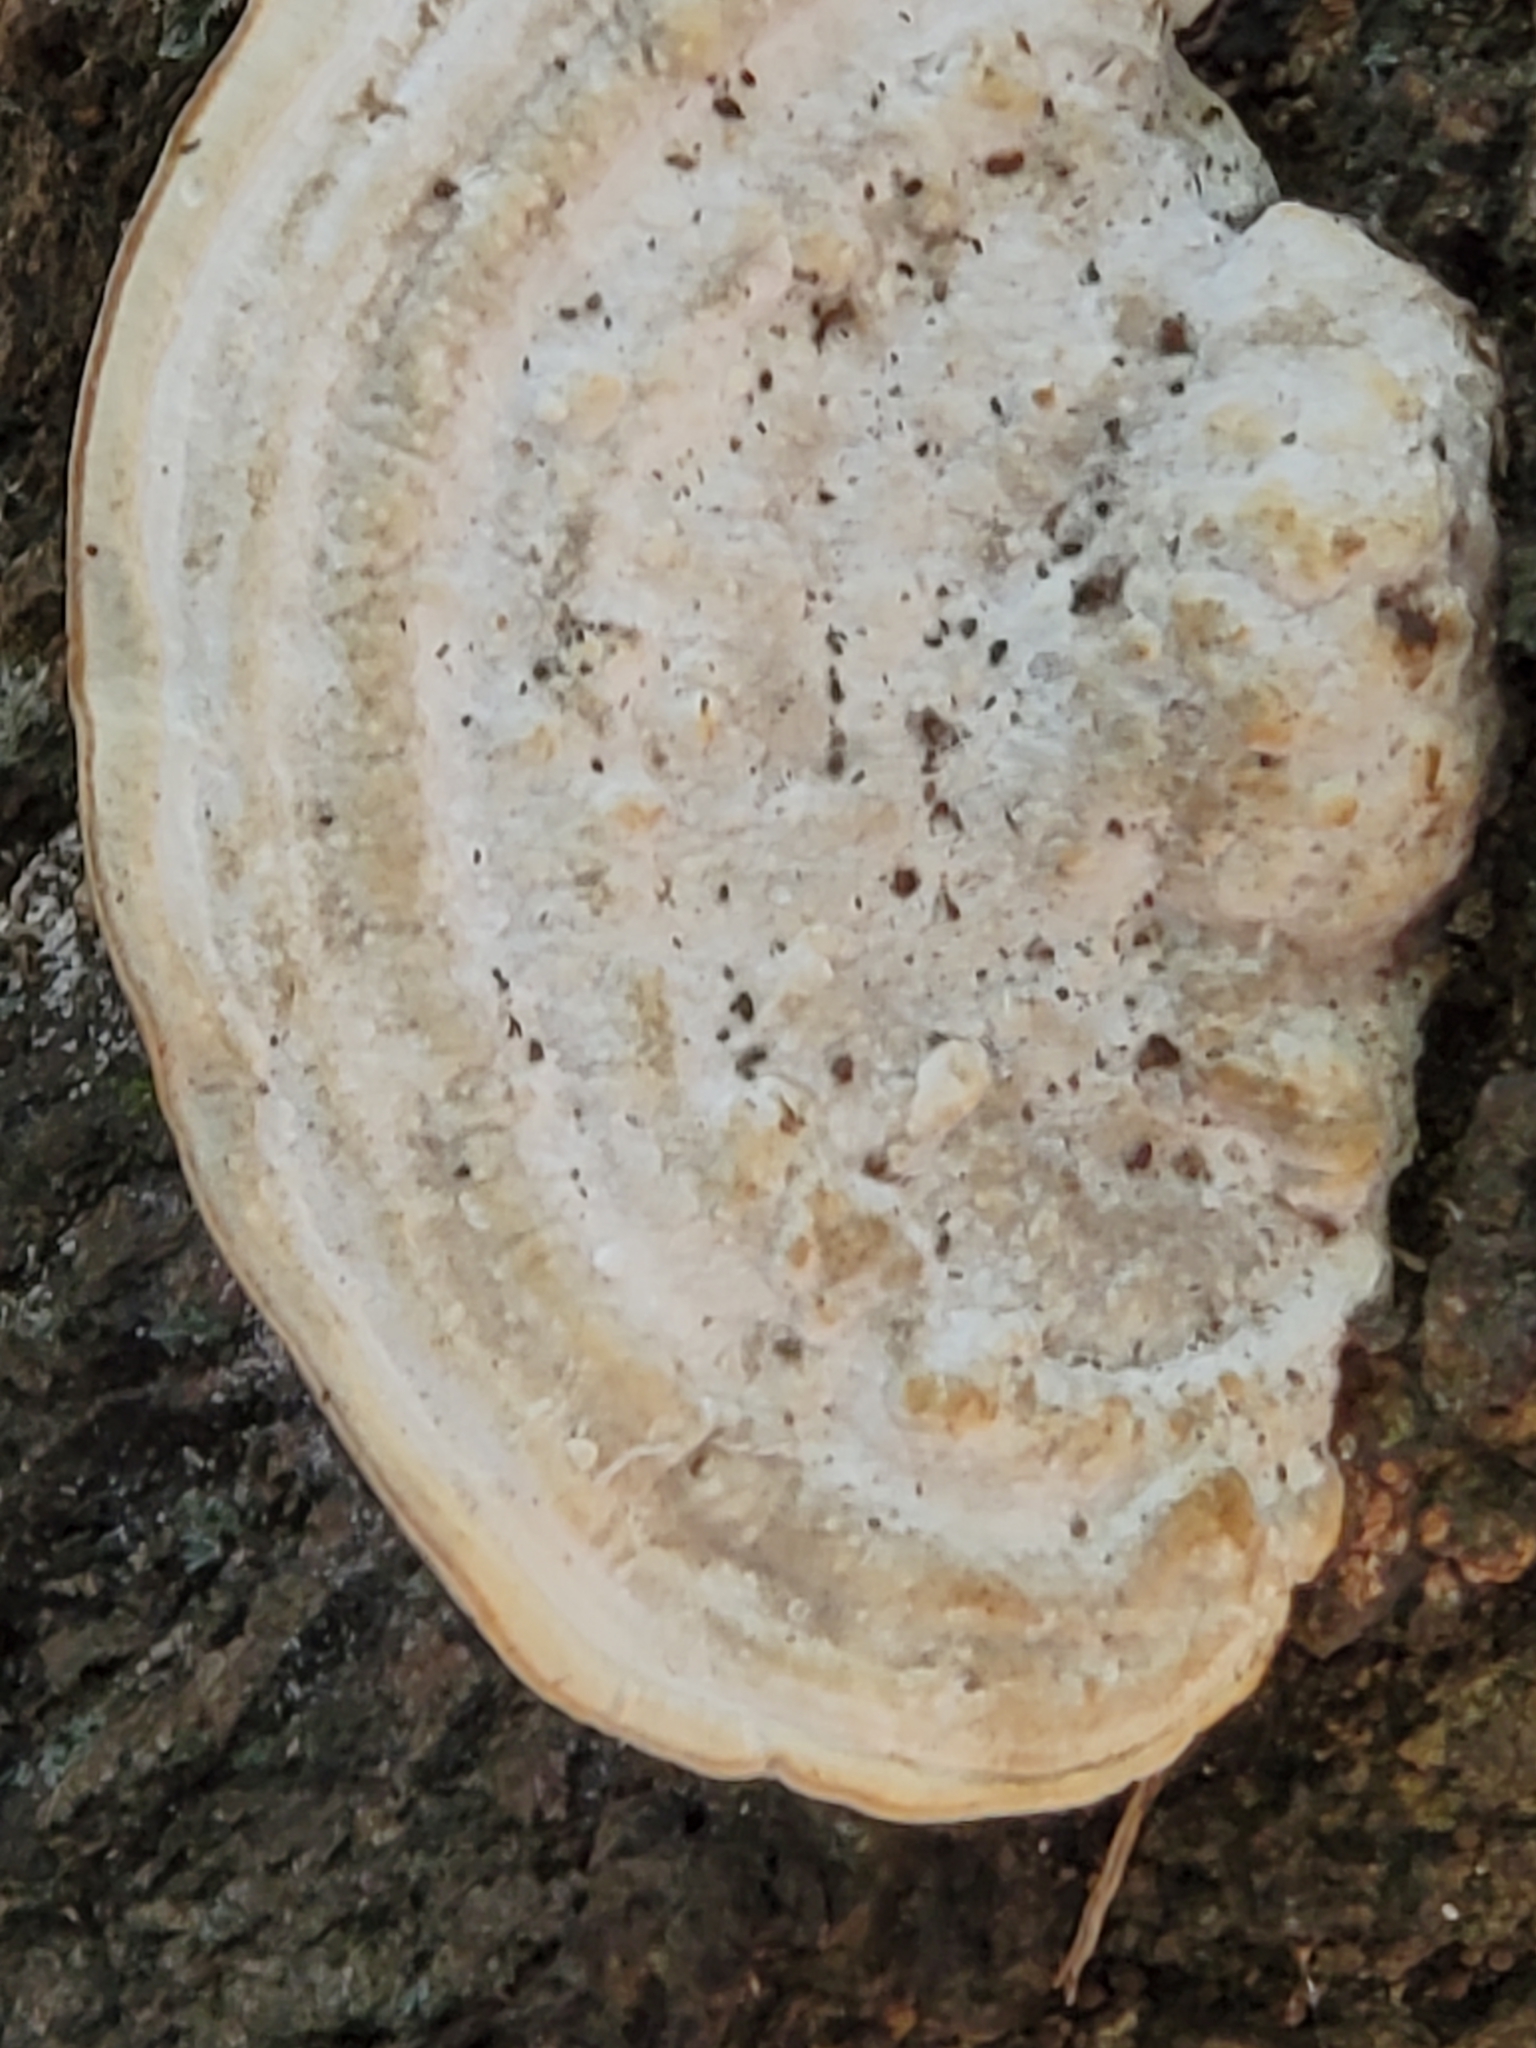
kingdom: Fungi
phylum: Basidiomycota
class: Agaricomycetes
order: Polyporales
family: Polyporaceae
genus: Trametes
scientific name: Trametes gibbosa
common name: Lumpy bracket
